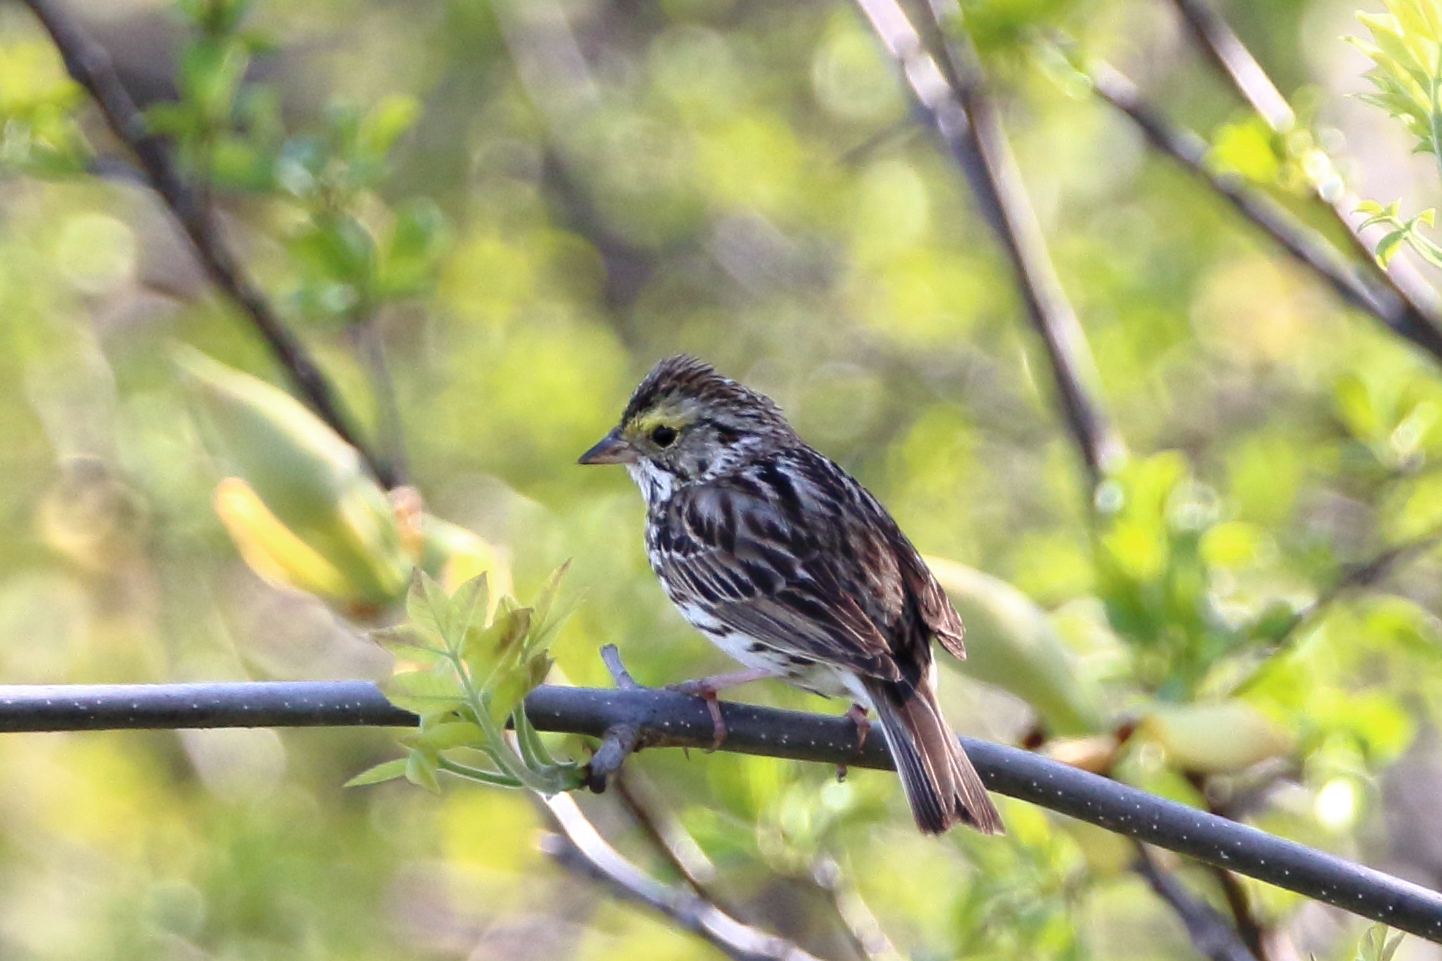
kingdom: Animalia
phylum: Chordata
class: Aves
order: Passeriformes
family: Passerellidae
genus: Passerculus
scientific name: Passerculus sandwichensis
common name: Savannah sparrow
